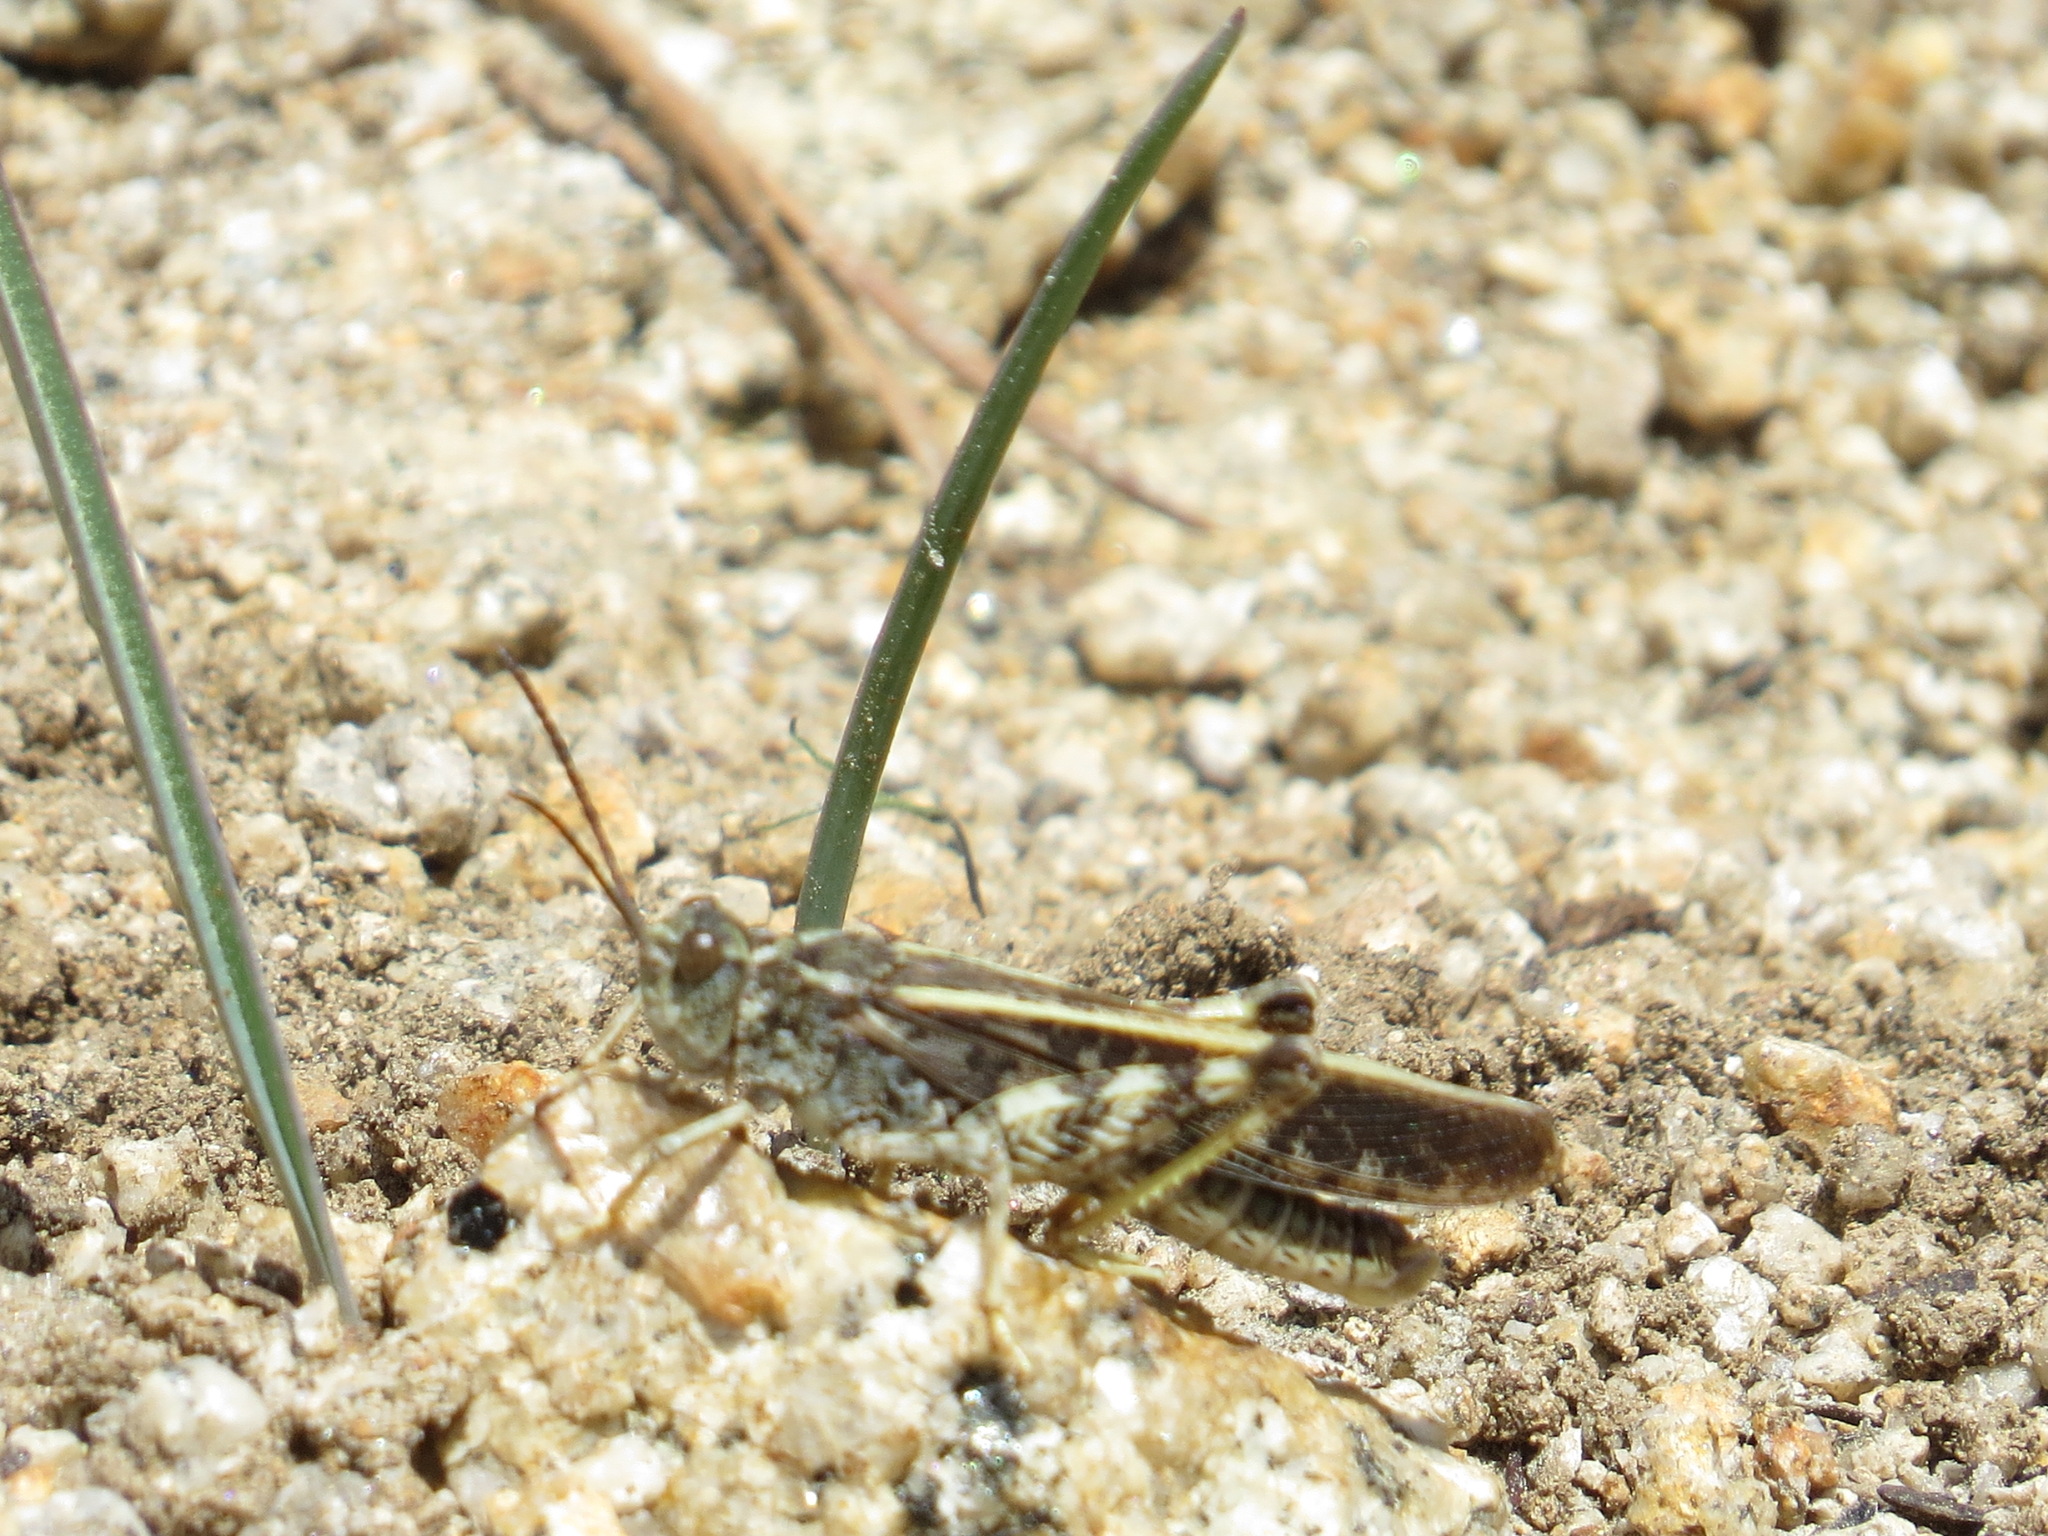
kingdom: Animalia
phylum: Arthropoda
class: Insecta
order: Orthoptera
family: Acrididae
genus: Cratypedes
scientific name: Cratypedes lateritius
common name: Nevada red-winged grasshopper
